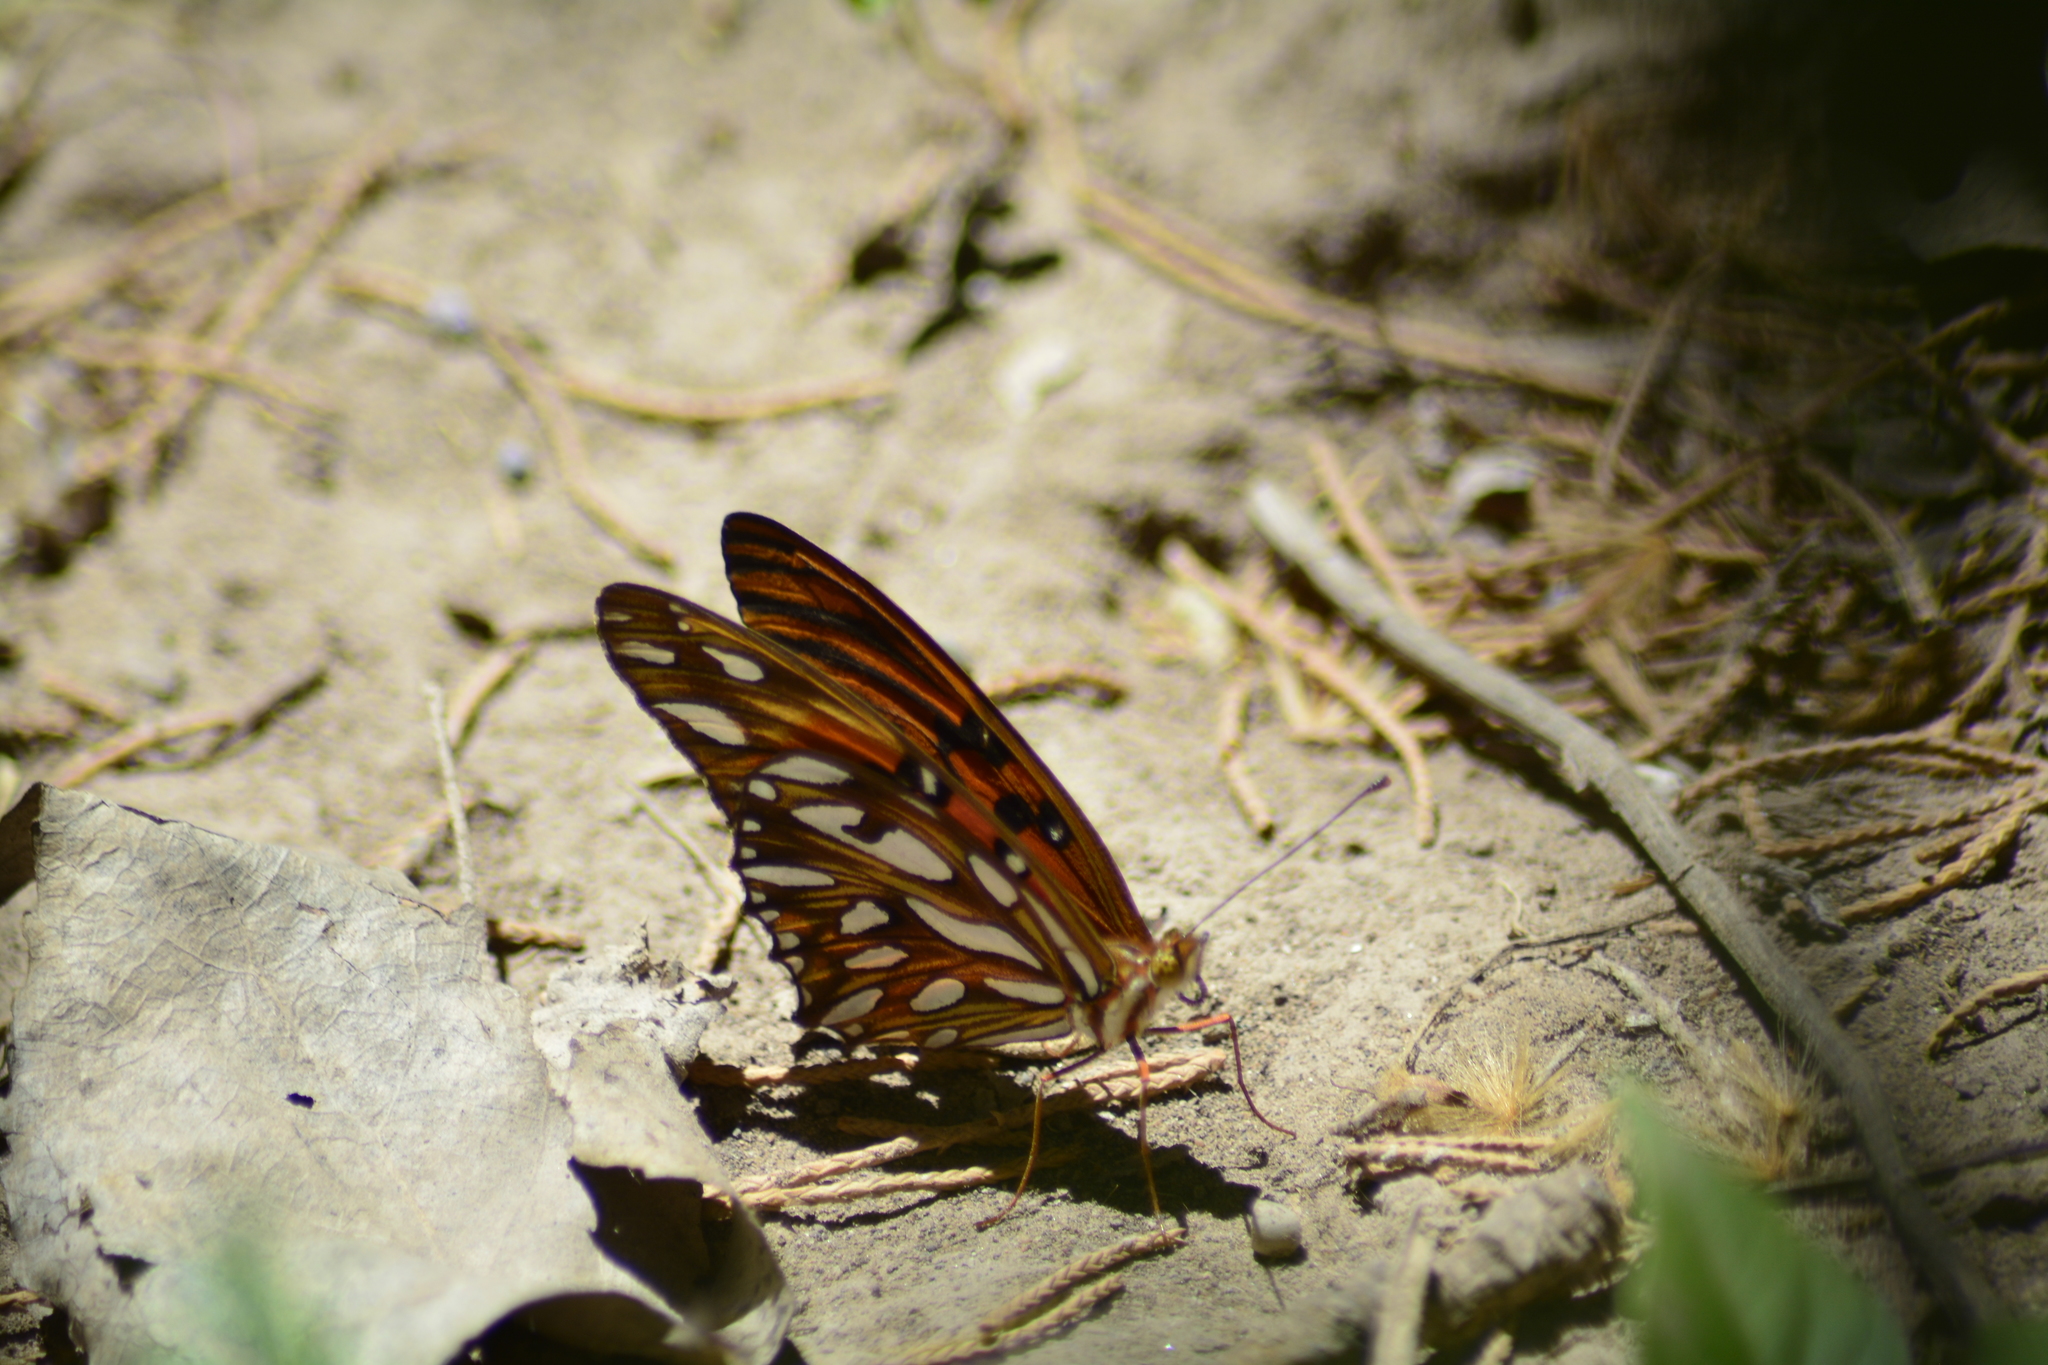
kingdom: Animalia
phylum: Arthropoda
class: Insecta
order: Lepidoptera
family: Nymphalidae
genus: Dione
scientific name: Dione vanillae
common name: Gulf fritillary
